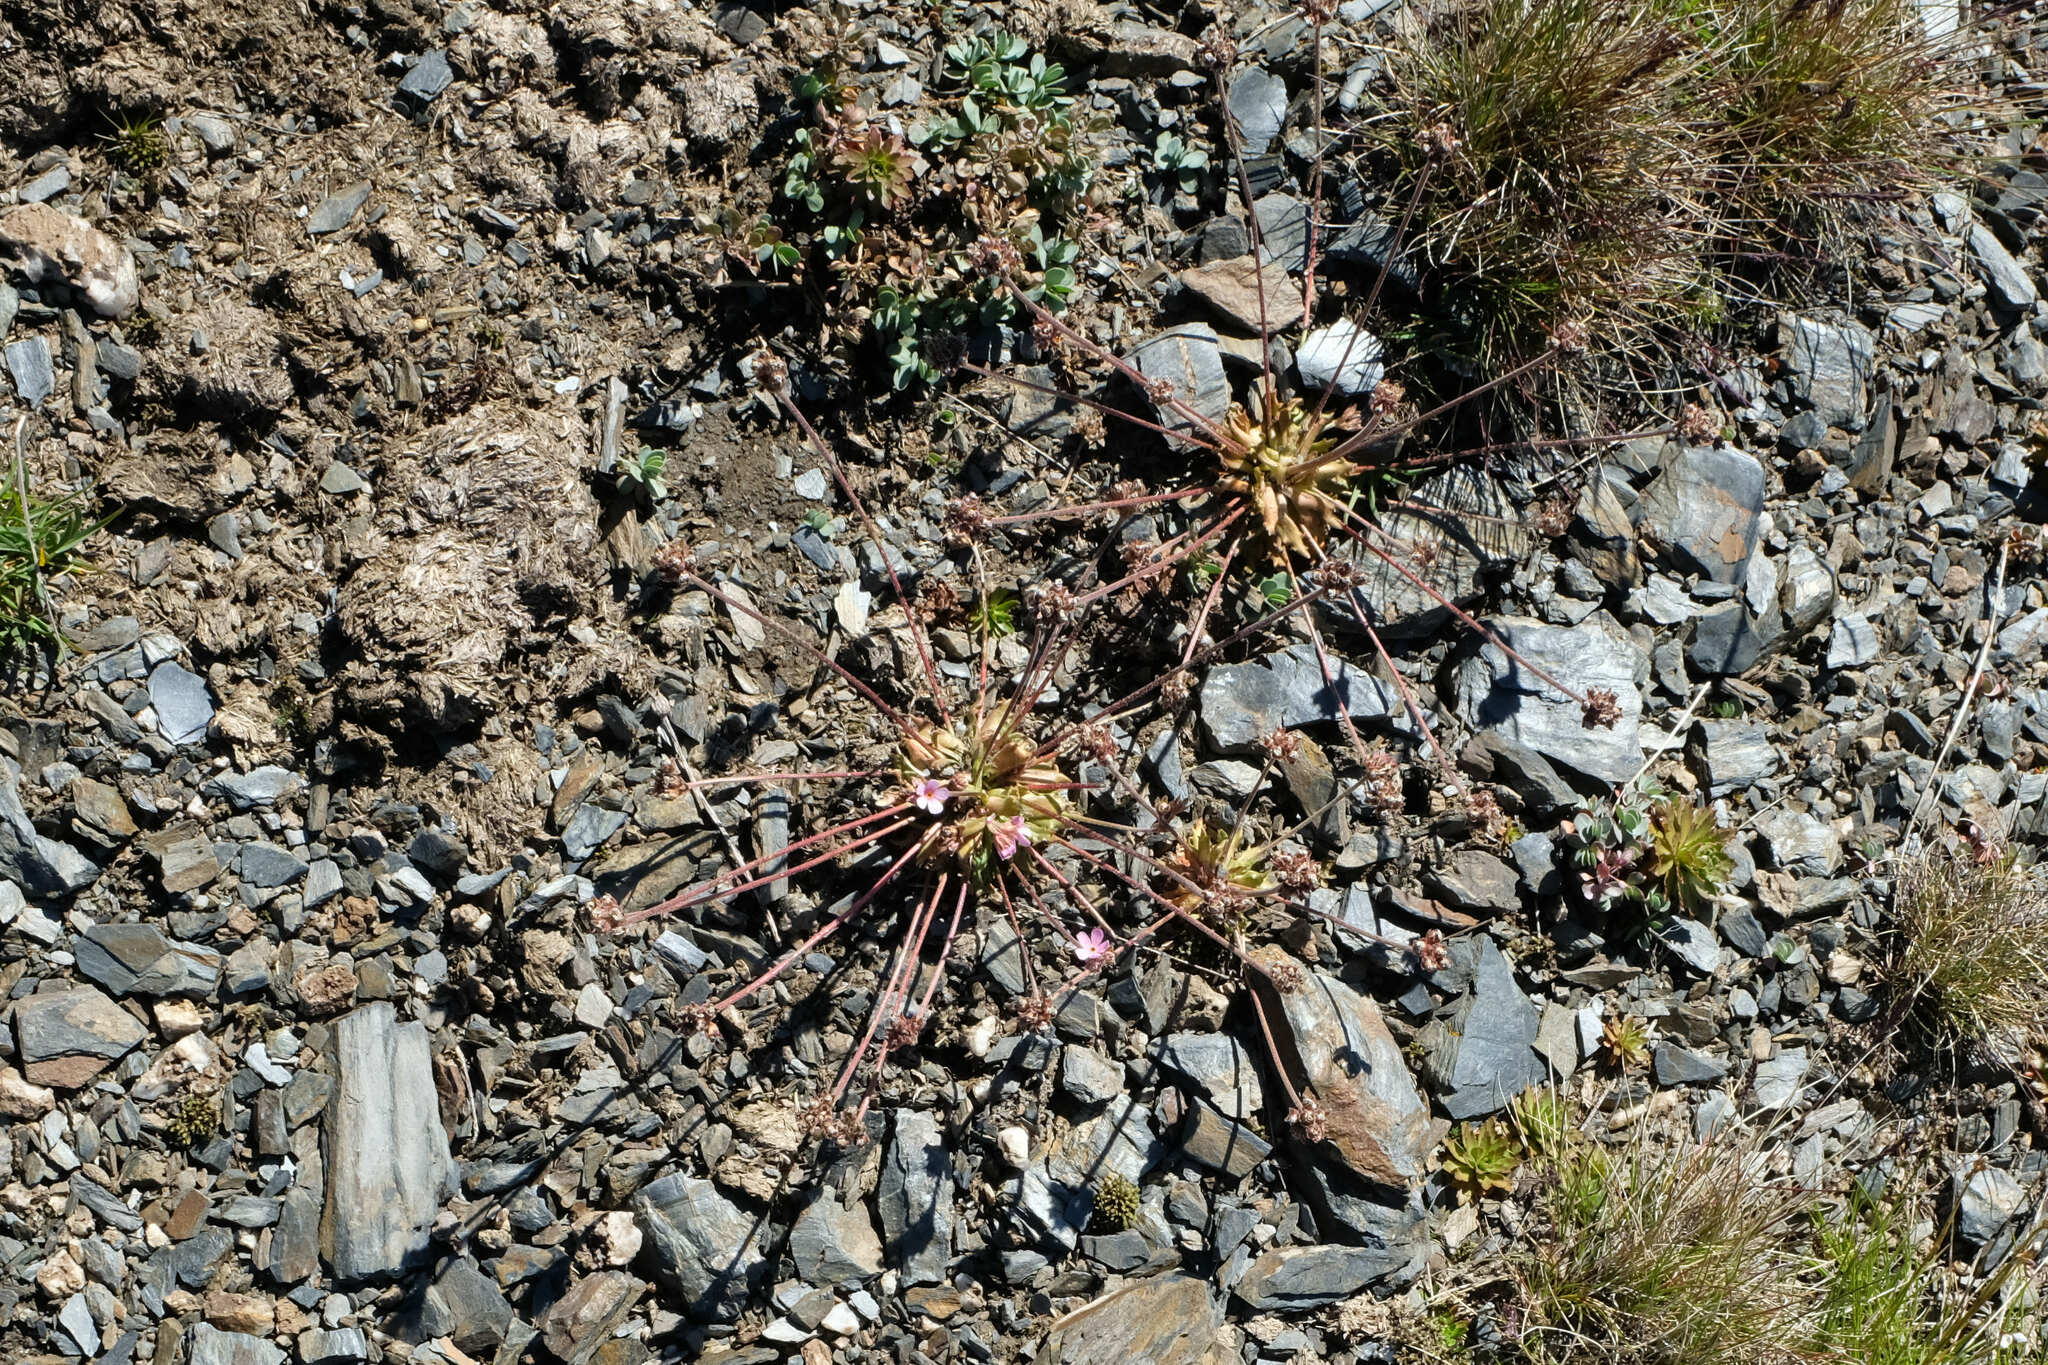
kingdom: Plantae
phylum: Tracheophyta
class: Magnoliopsida
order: Ericales
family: Primulaceae
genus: Androsace
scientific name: Androsace albana
